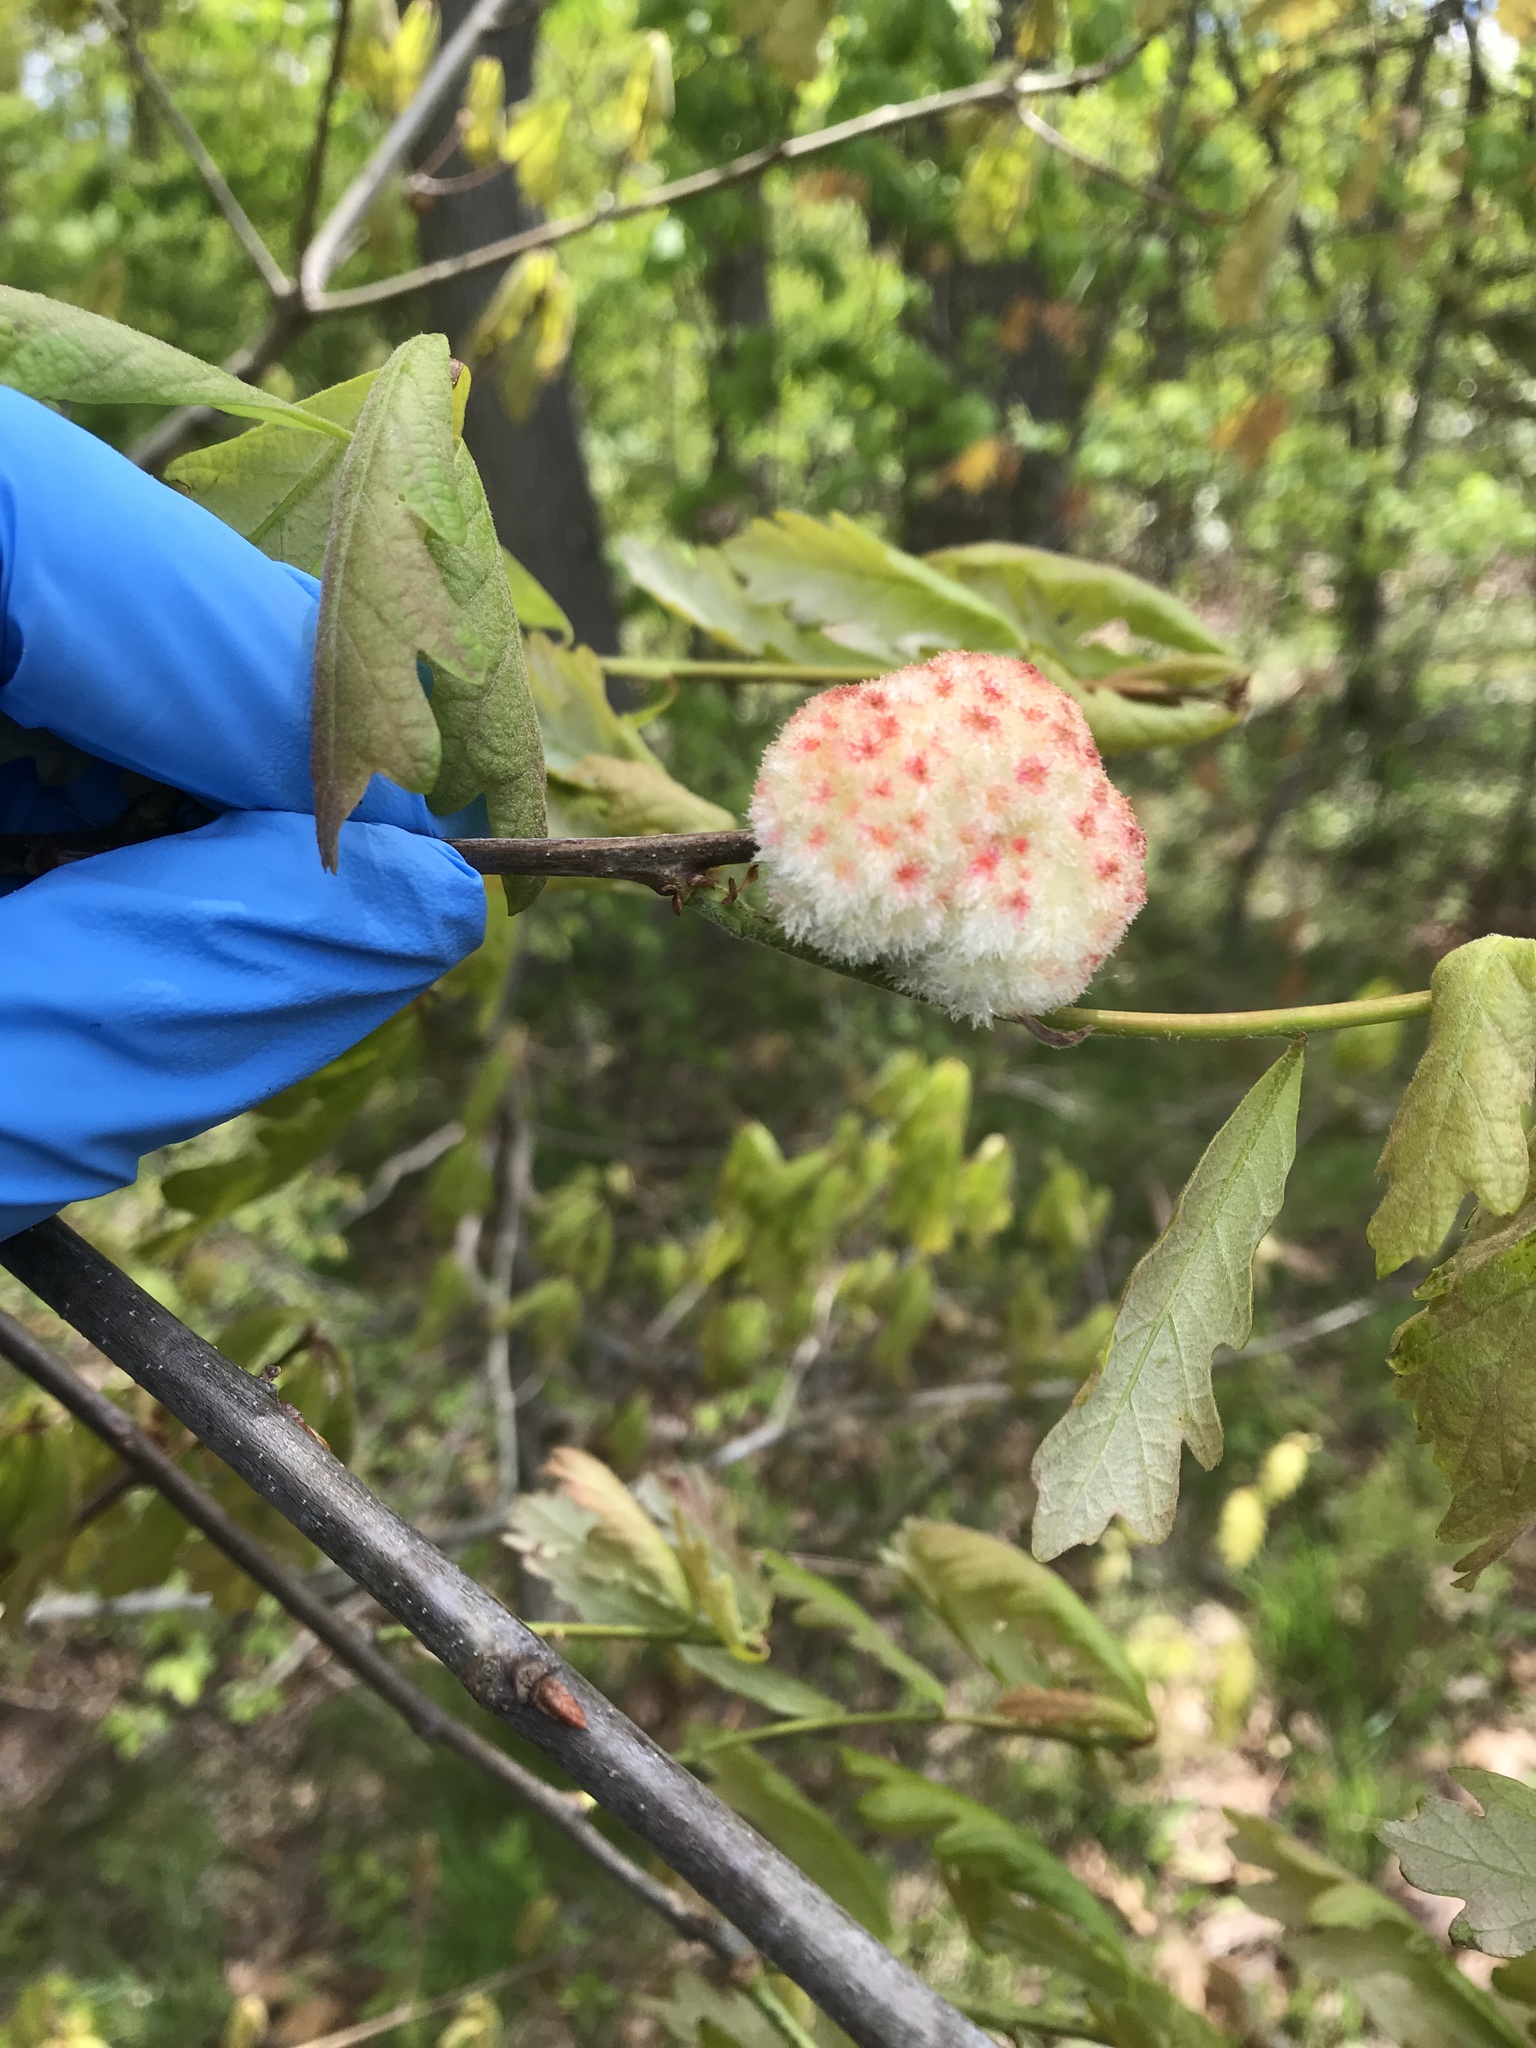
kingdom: Animalia
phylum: Arthropoda
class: Insecta
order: Hymenoptera
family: Cynipidae
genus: Callirhytis
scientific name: Callirhytis
